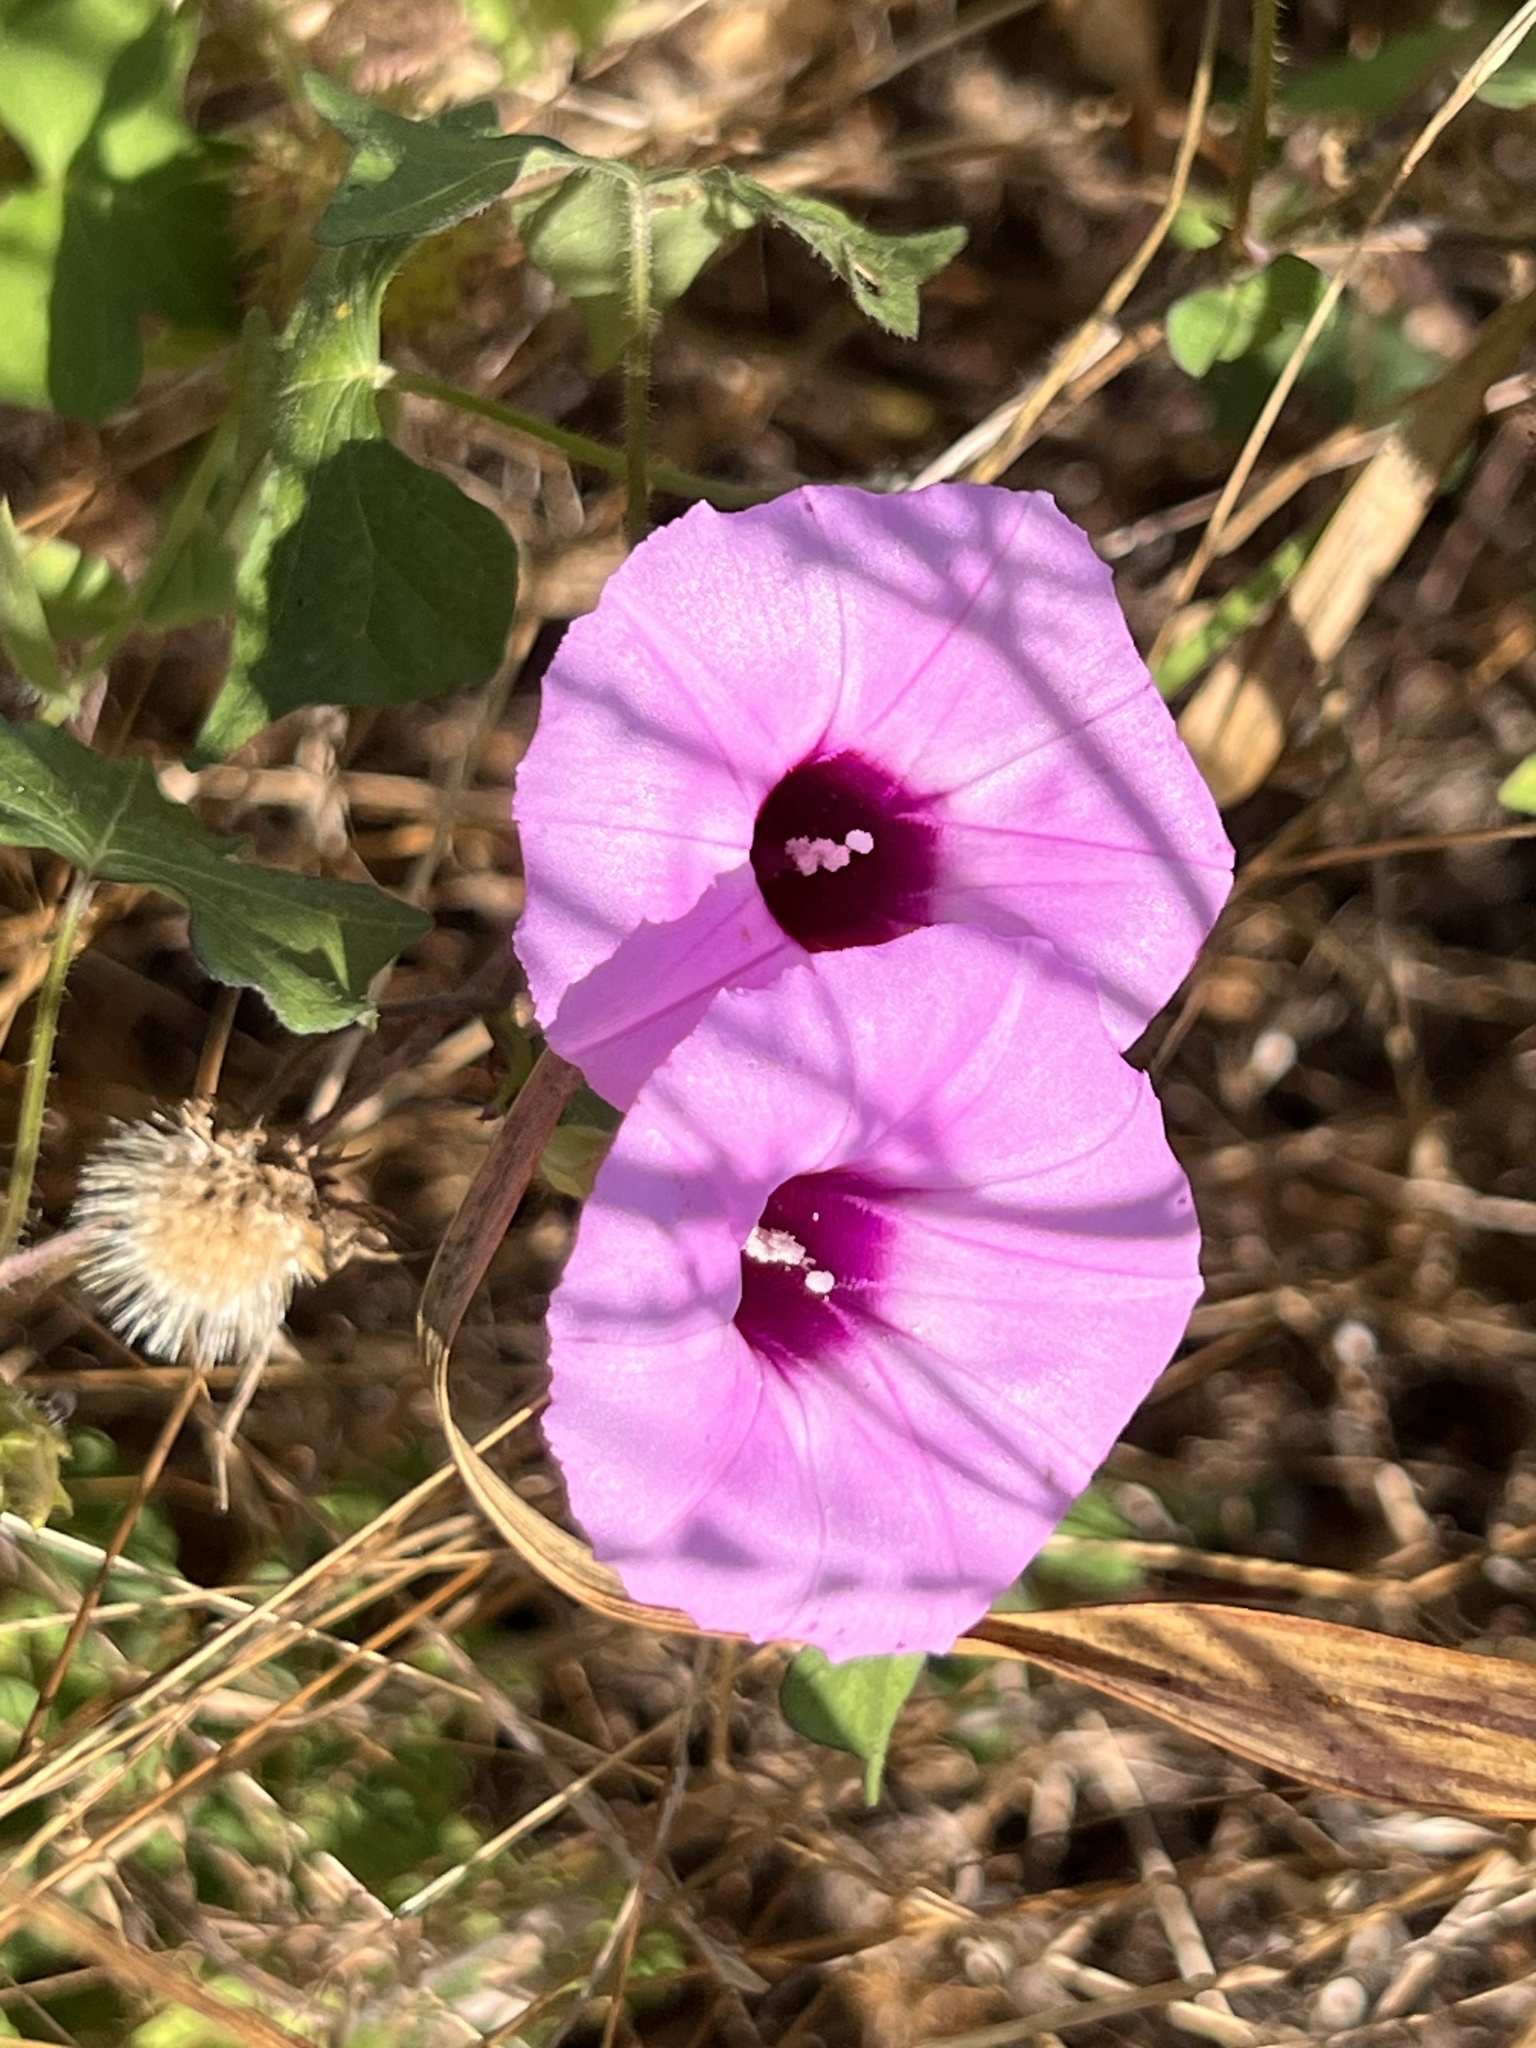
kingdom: Plantae
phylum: Tracheophyta
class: Magnoliopsida
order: Solanales
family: Convolvulaceae
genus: Ipomoea
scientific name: Ipomoea cordatotriloba
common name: Cotton morning glory
